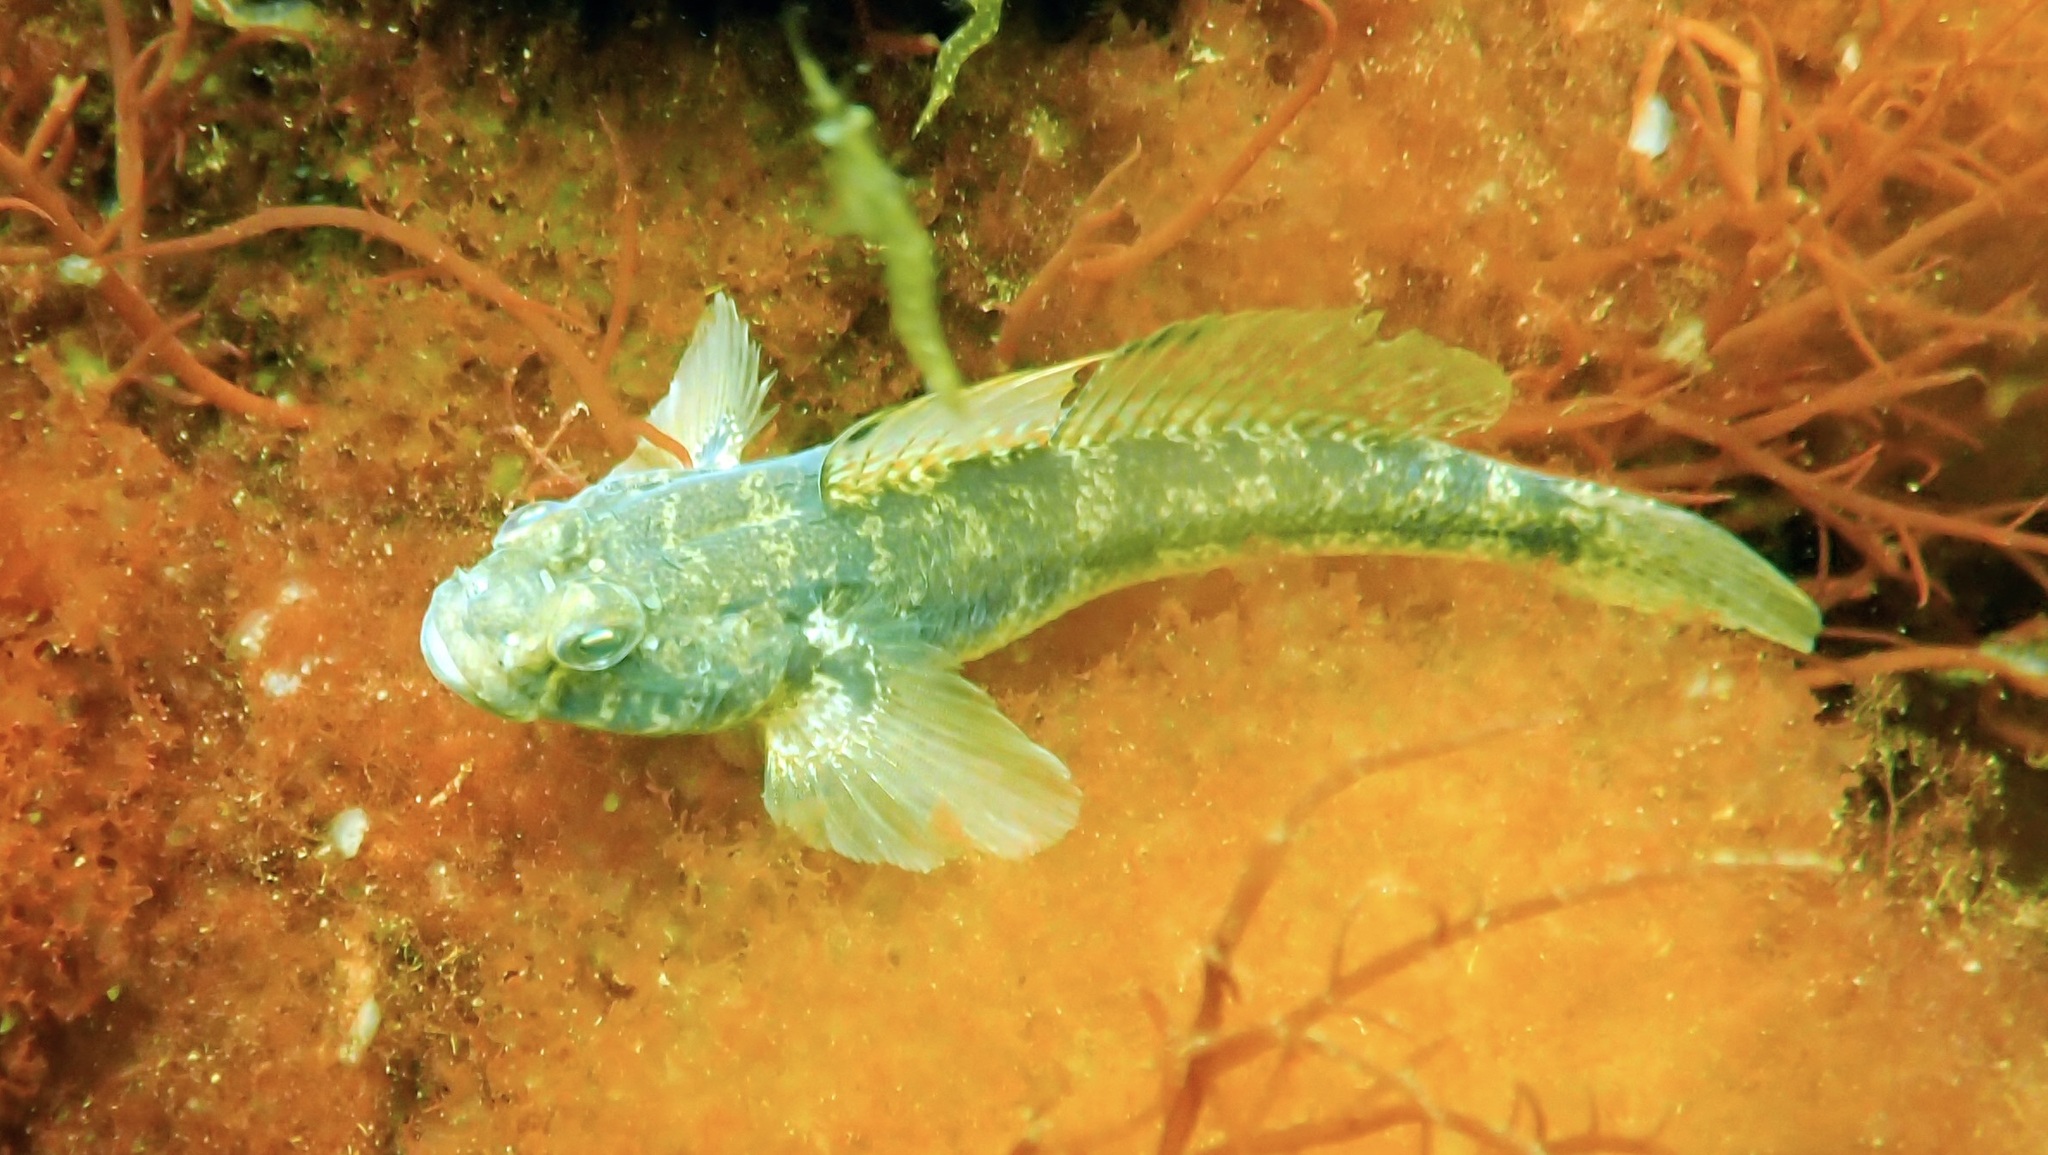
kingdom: Animalia
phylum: Chordata
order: Perciformes
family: Gobiidae
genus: Gobius
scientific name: Gobius niger
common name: Black goby
